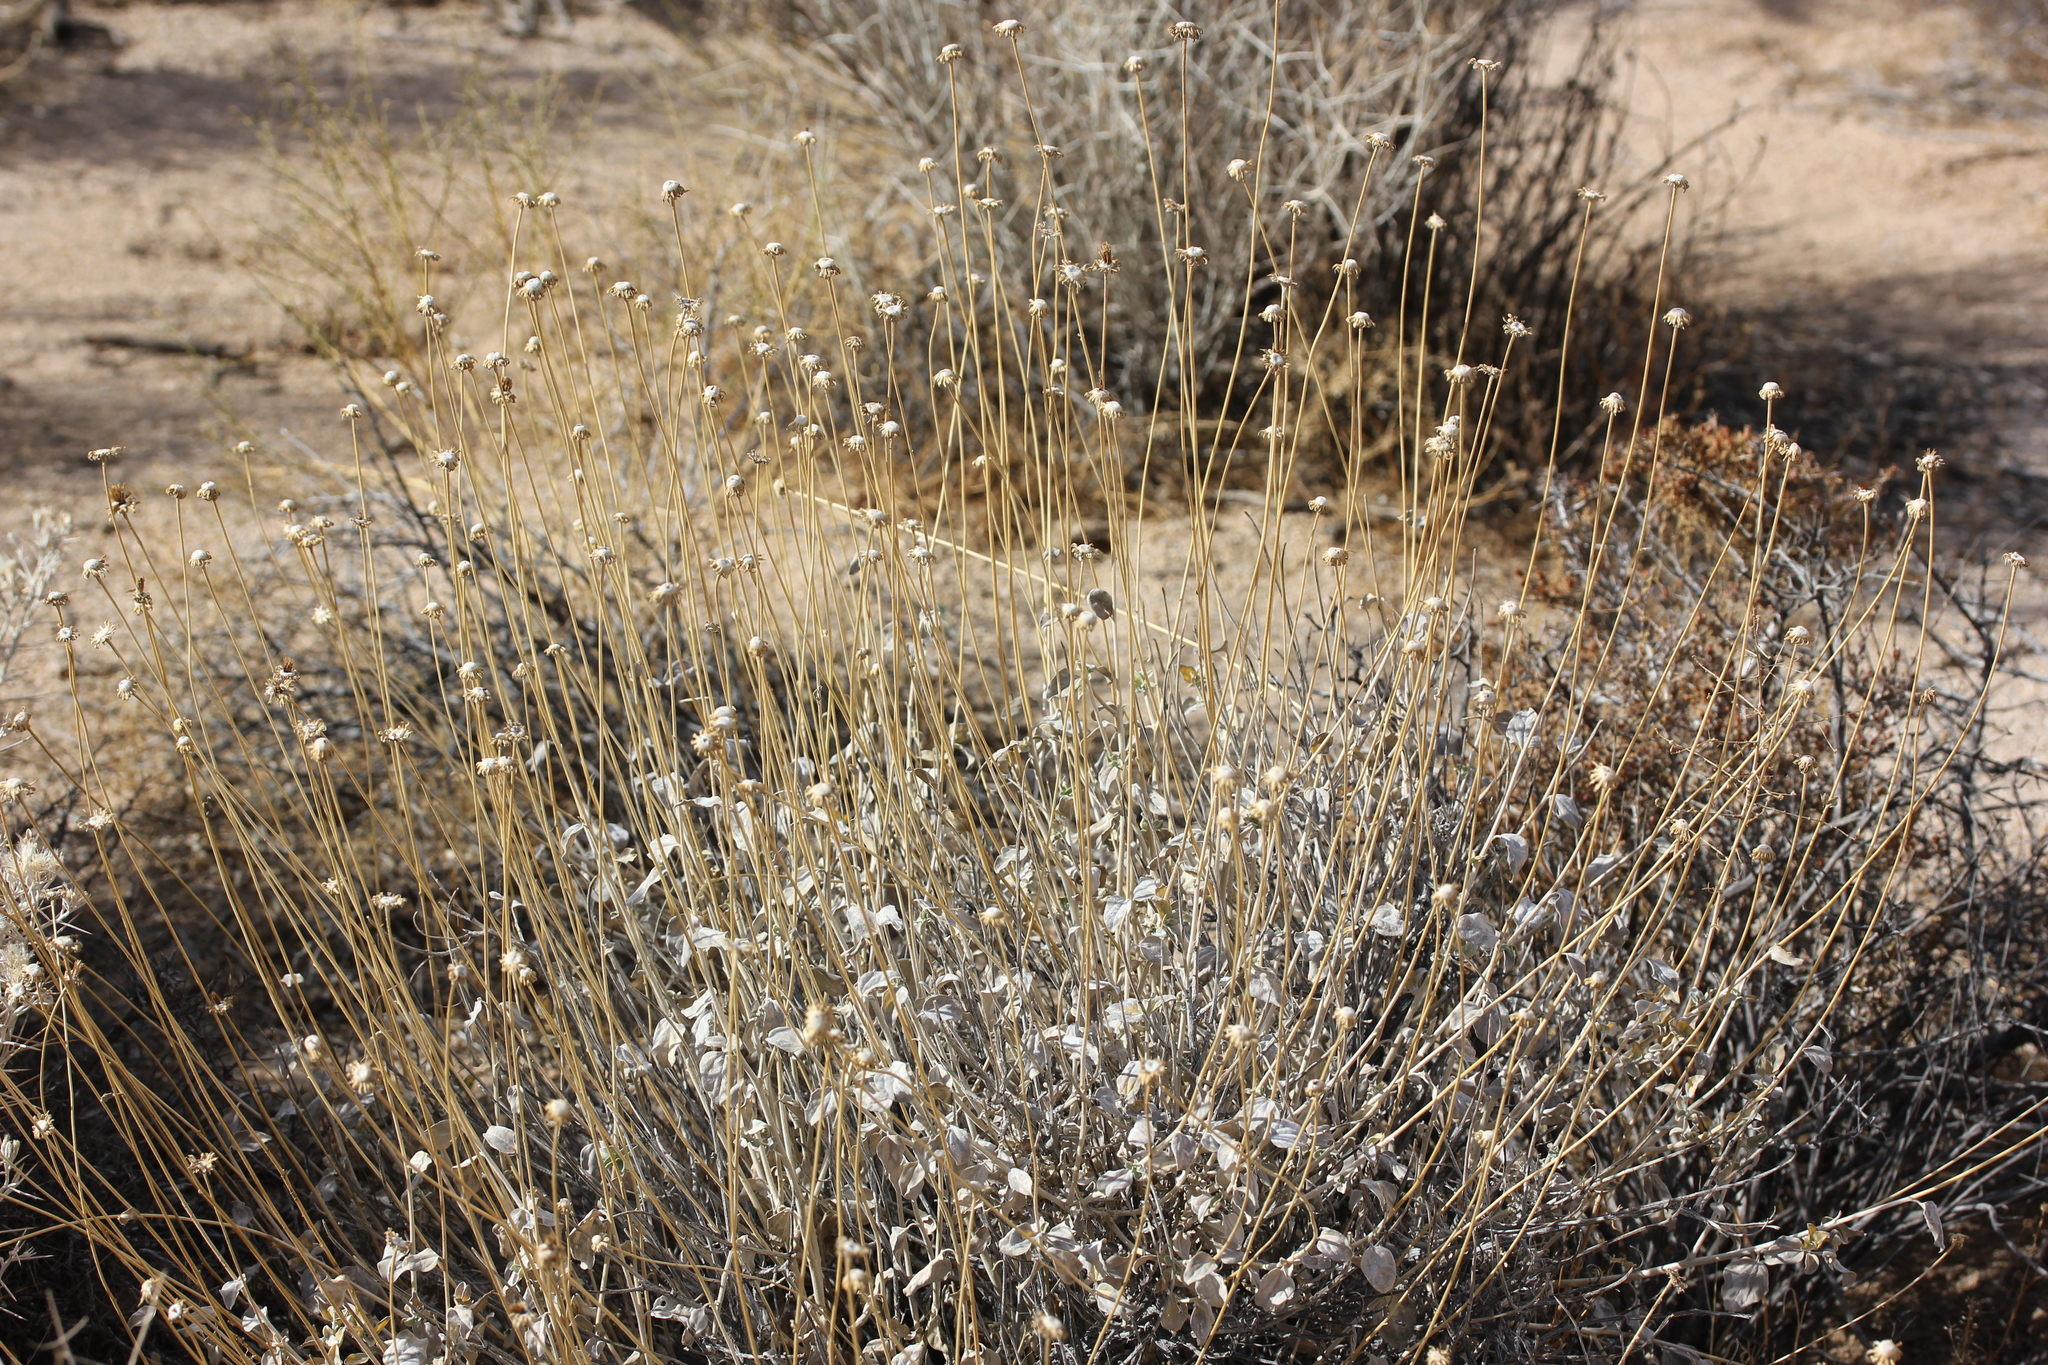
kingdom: Plantae
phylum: Tracheophyta
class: Magnoliopsida
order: Asterales
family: Asteraceae
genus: Encelia
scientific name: Encelia actoni
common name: Acton encelia
